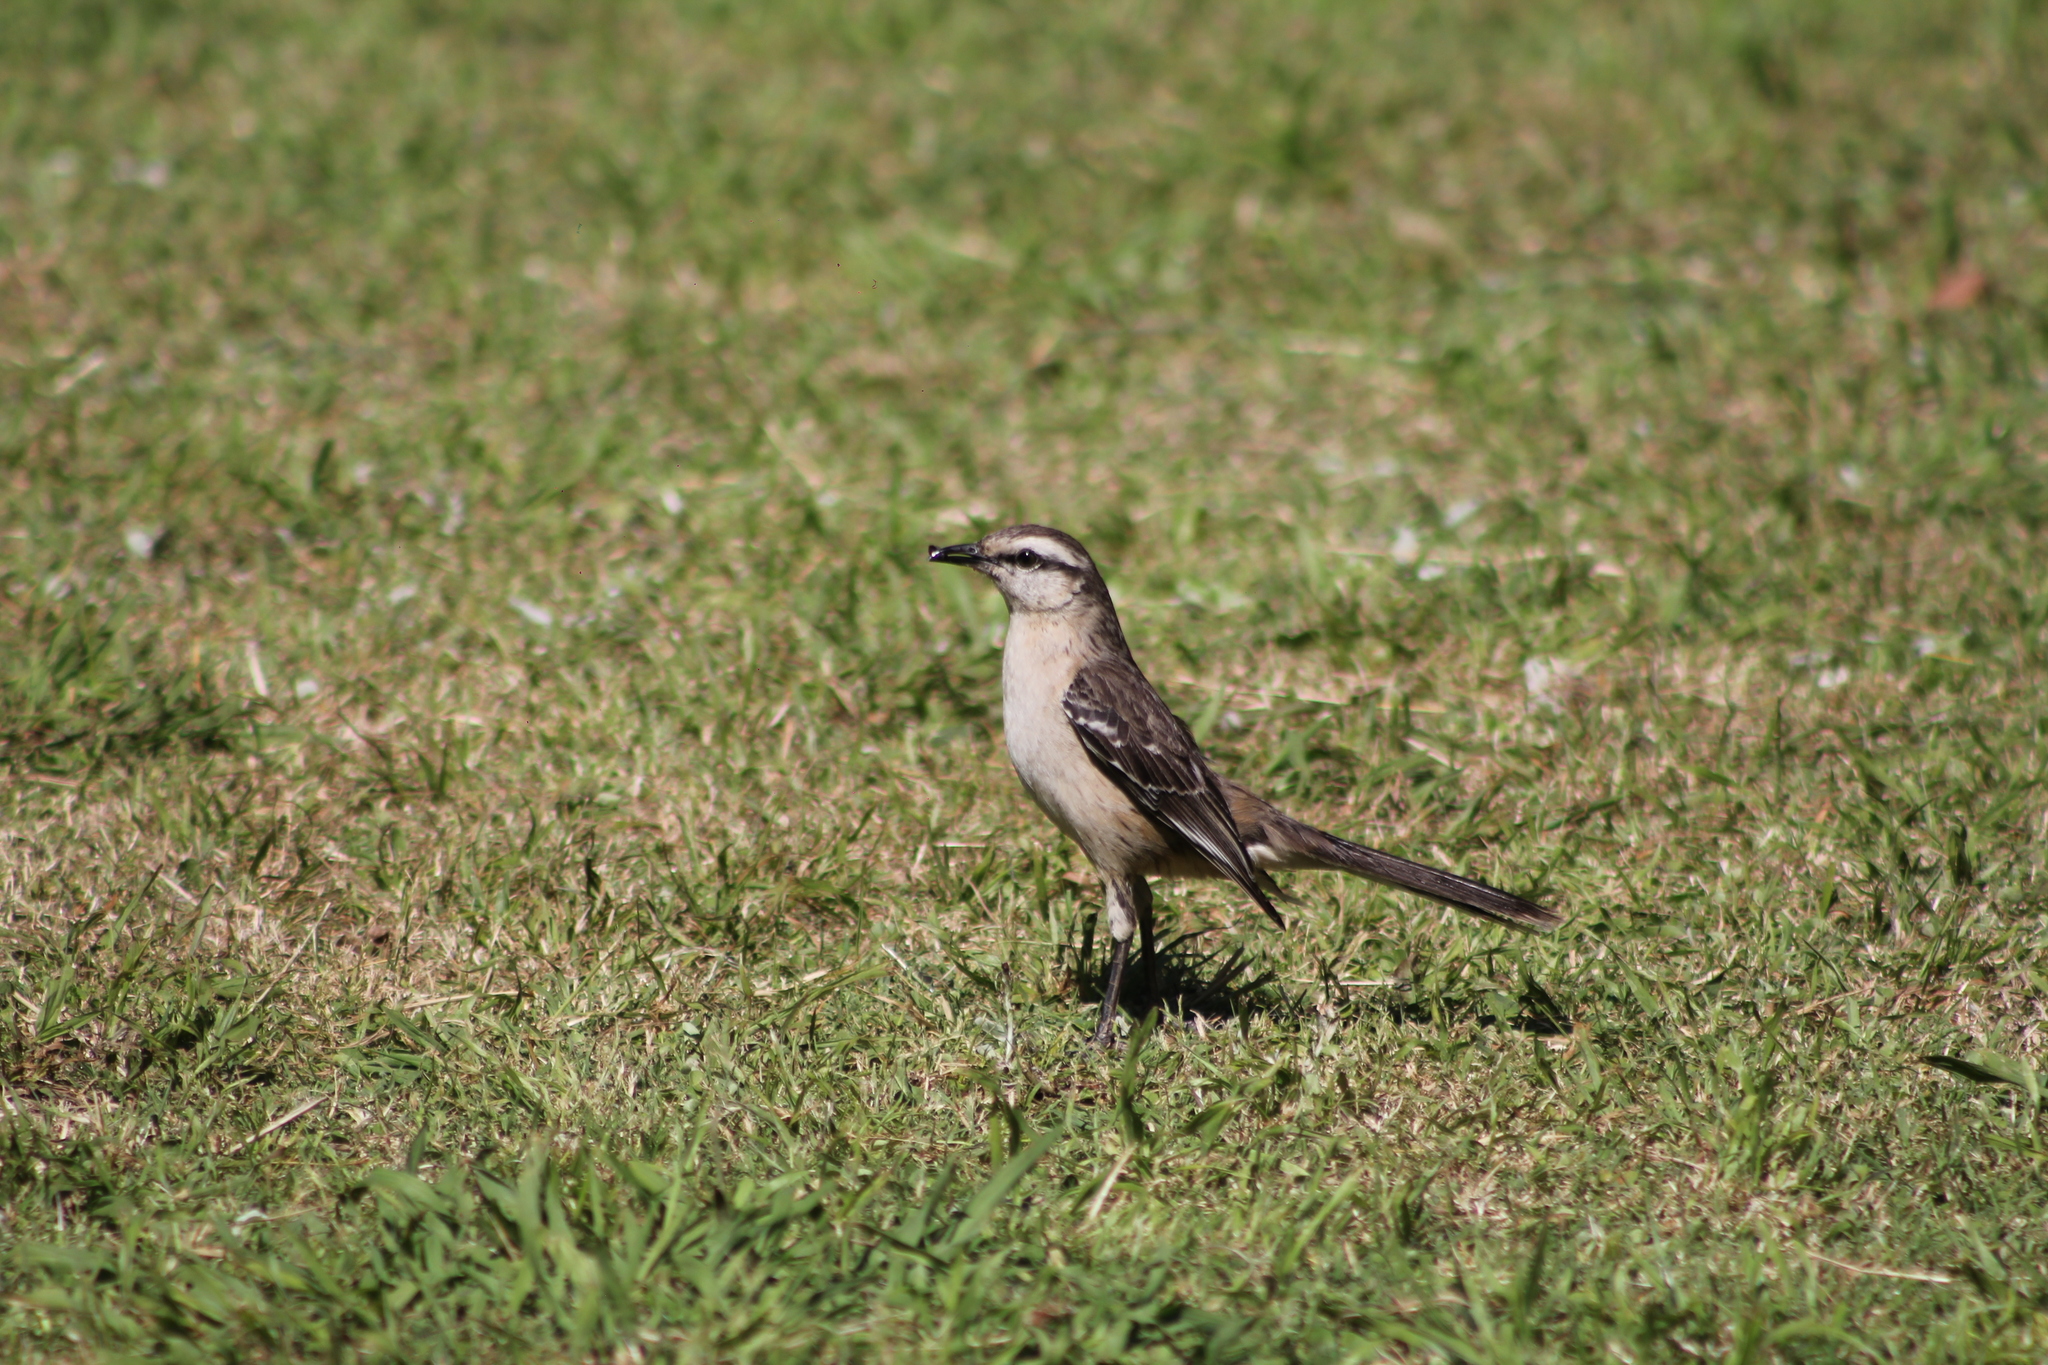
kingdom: Animalia
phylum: Chordata
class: Aves
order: Passeriformes
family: Mimidae
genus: Mimus
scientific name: Mimus saturninus
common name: Chalk-browed mockingbird
